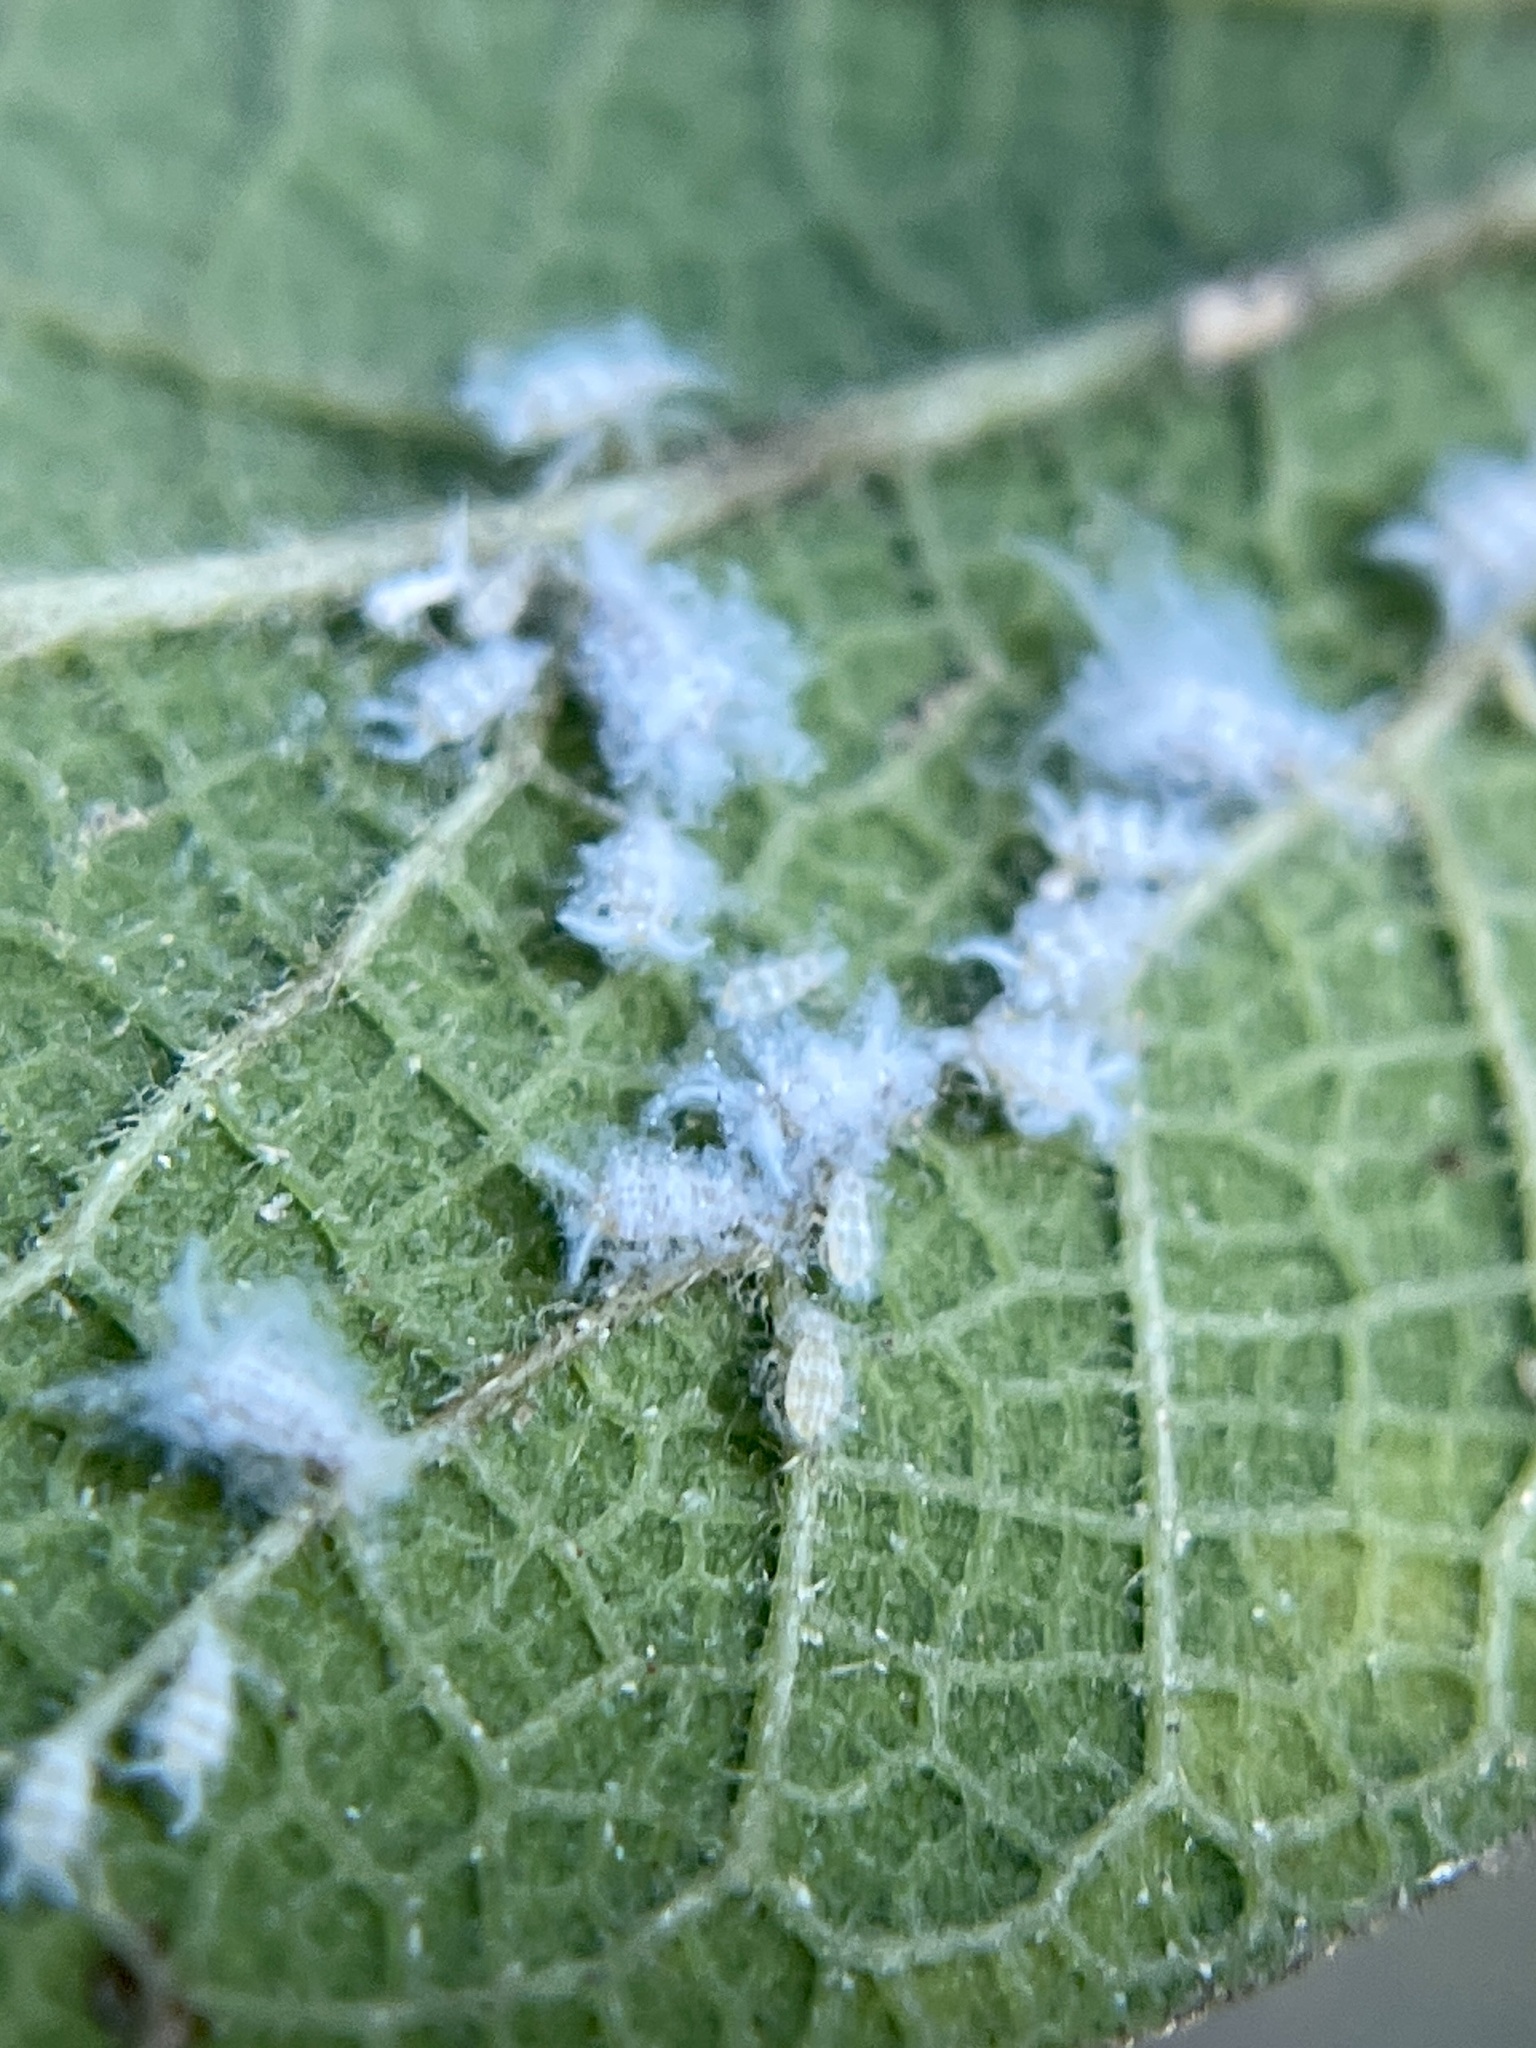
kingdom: Animalia
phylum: Arthropoda
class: Insecta
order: Hemiptera
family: Aphididae
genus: Shivaphis
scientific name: Shivaphis celti
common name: Asian wooly hackberry aphid
